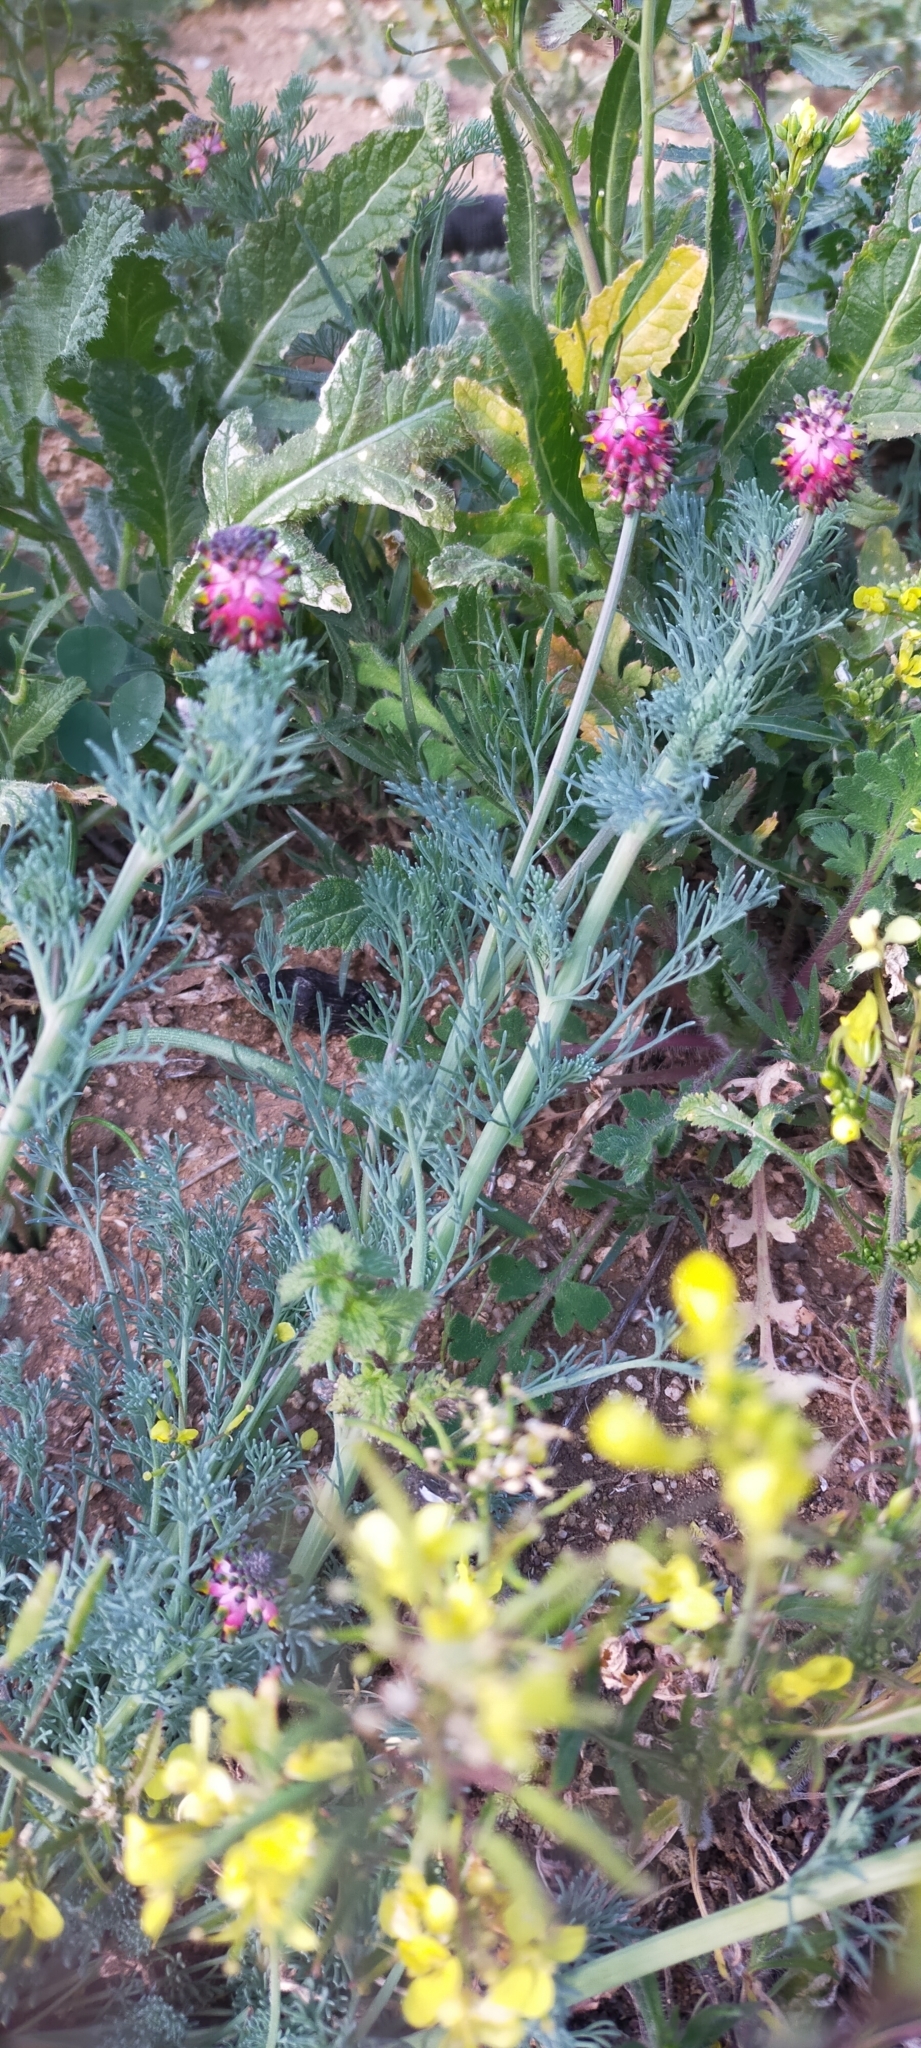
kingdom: Plantae
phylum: Tracheophyta
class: Magnoliopsida
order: Ranunculales
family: Papaveraceae
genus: Platycapnos
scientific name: Platycapnos spicata
